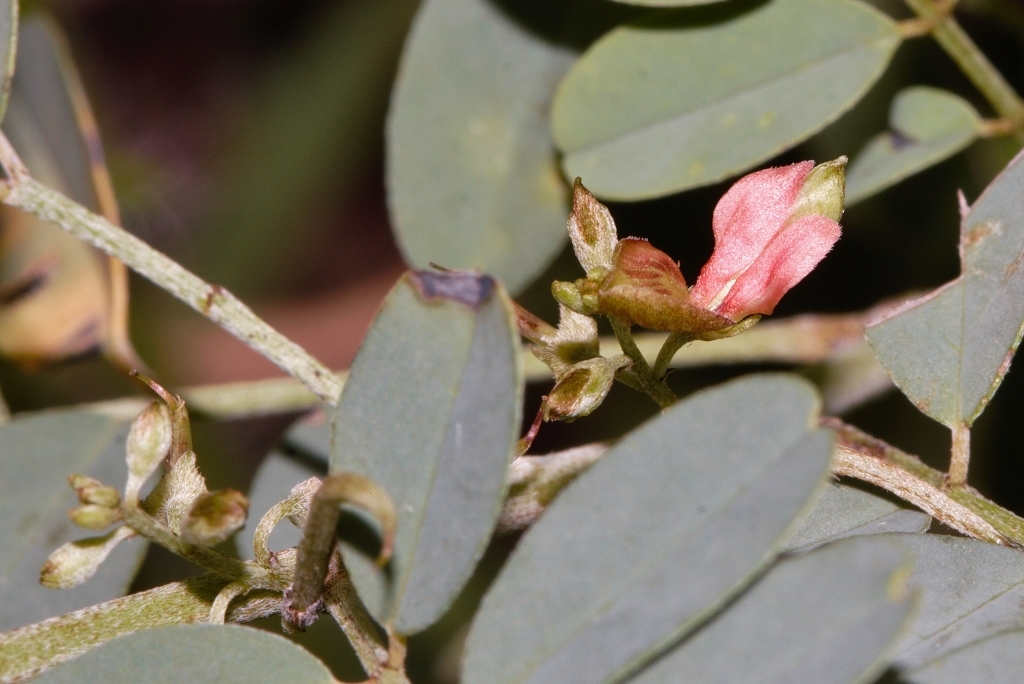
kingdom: Plantae
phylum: Tracheophyta
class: Magnoliopsida
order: Fabales
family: Fabaceae
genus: Indigofera
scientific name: Indigofera tinctoria
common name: True indigo
